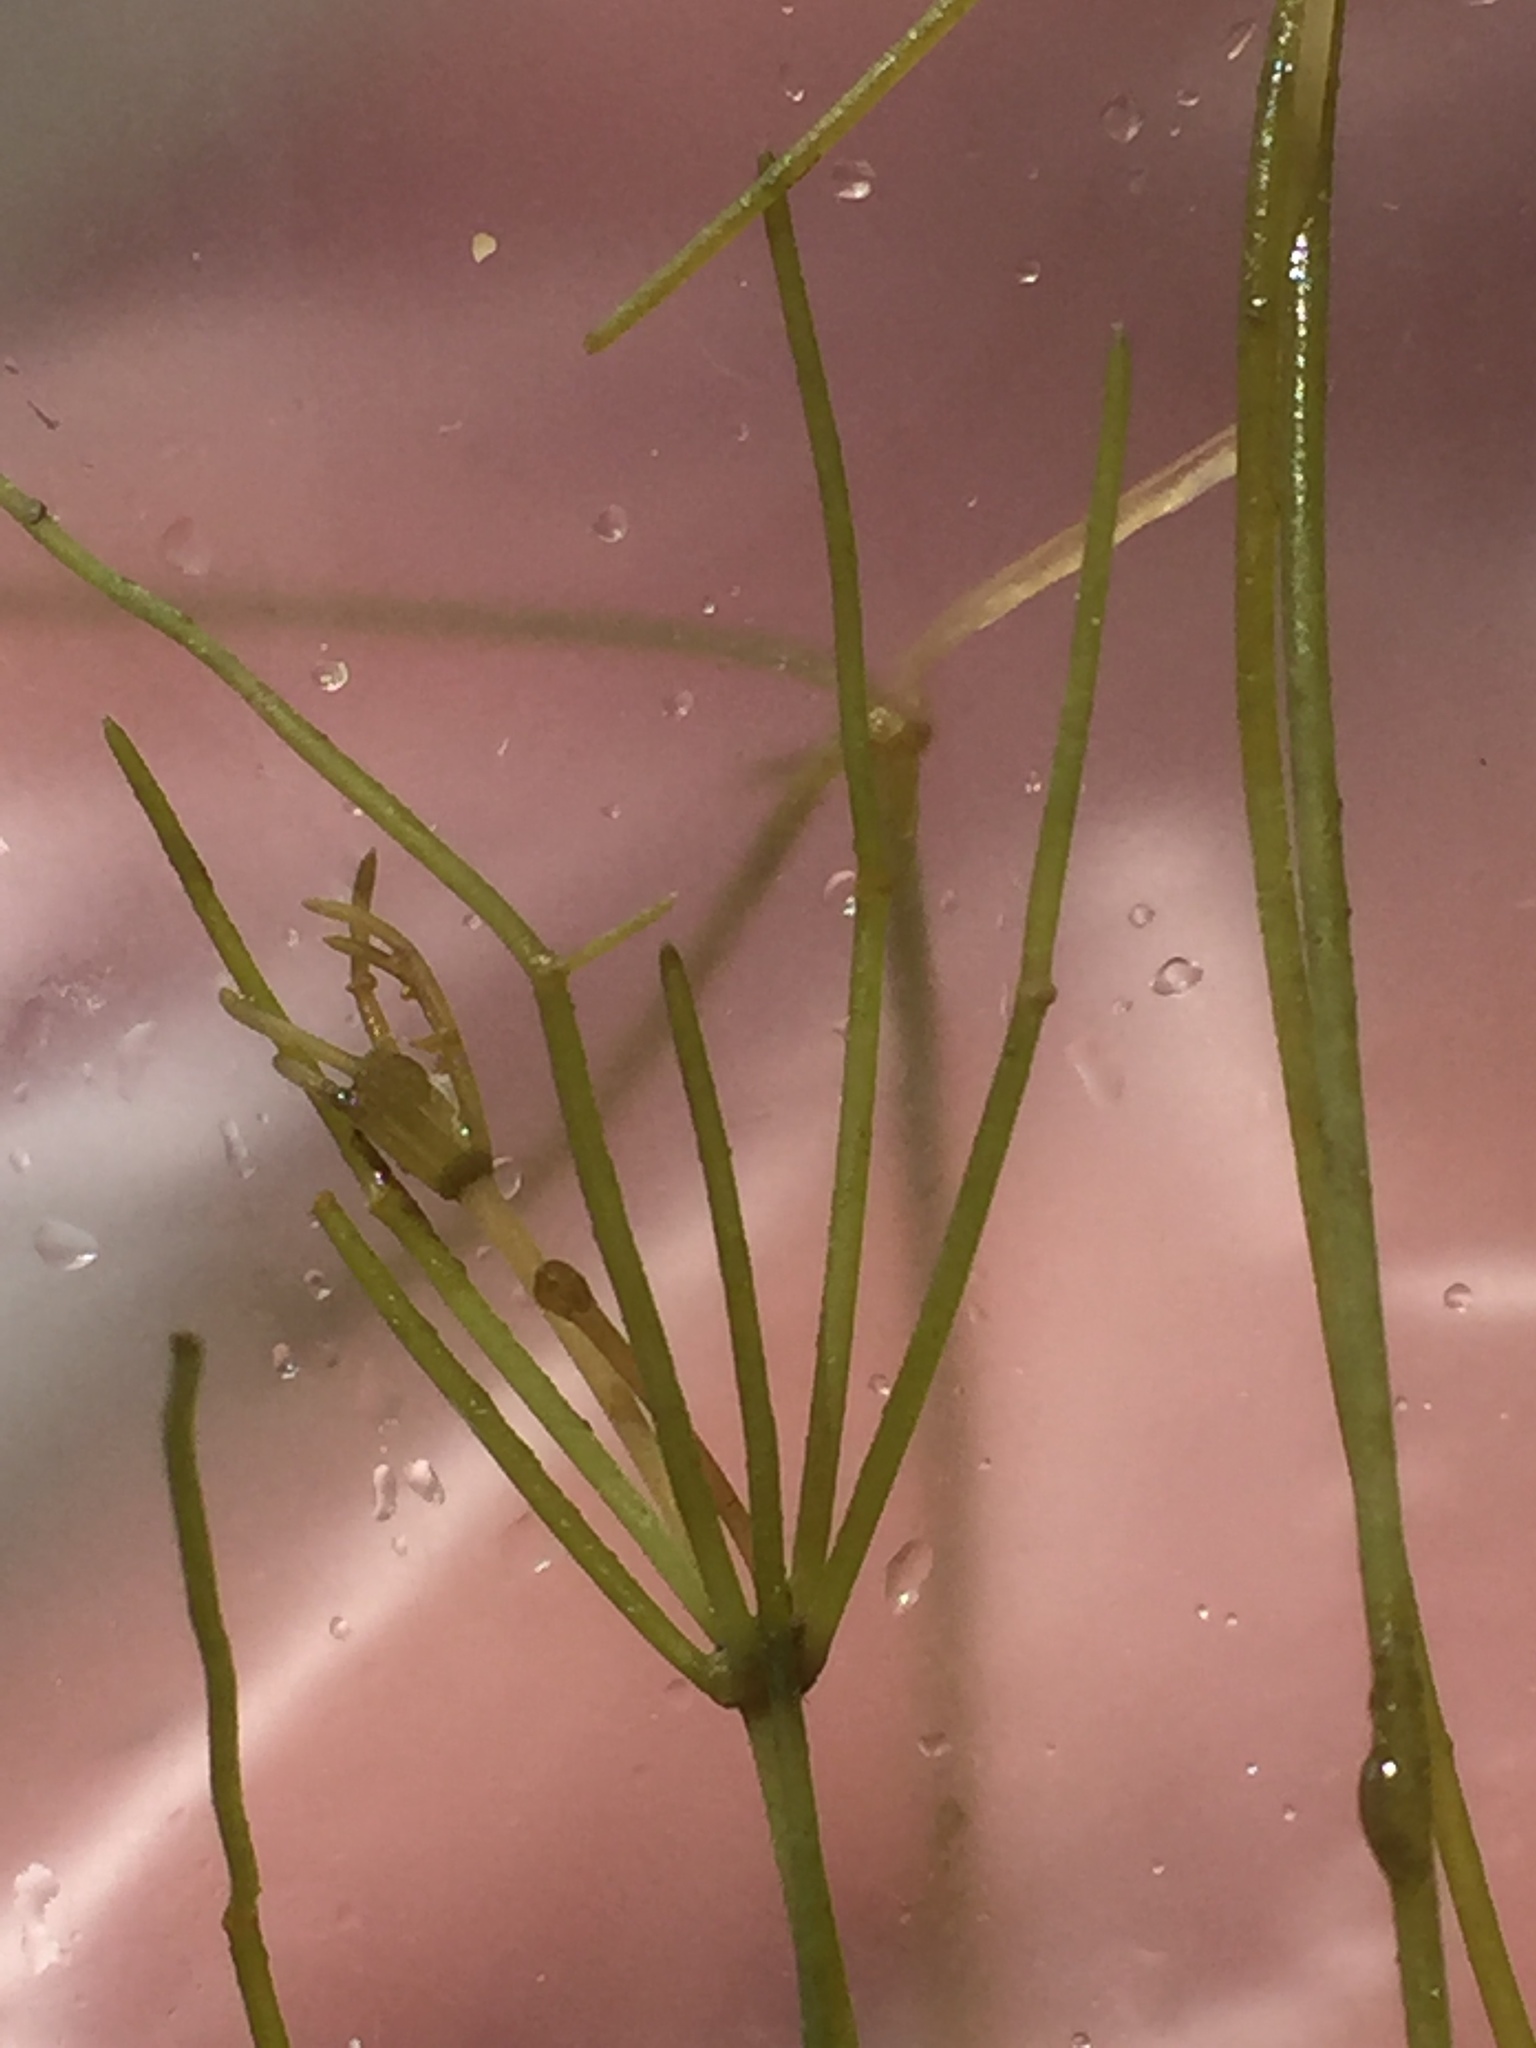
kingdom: Plantae
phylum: Charophyta
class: Charophyceae
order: Charales
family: Characeae
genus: Nitellopsis
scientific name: Nitellopsis obtusa
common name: Starry stonewort
